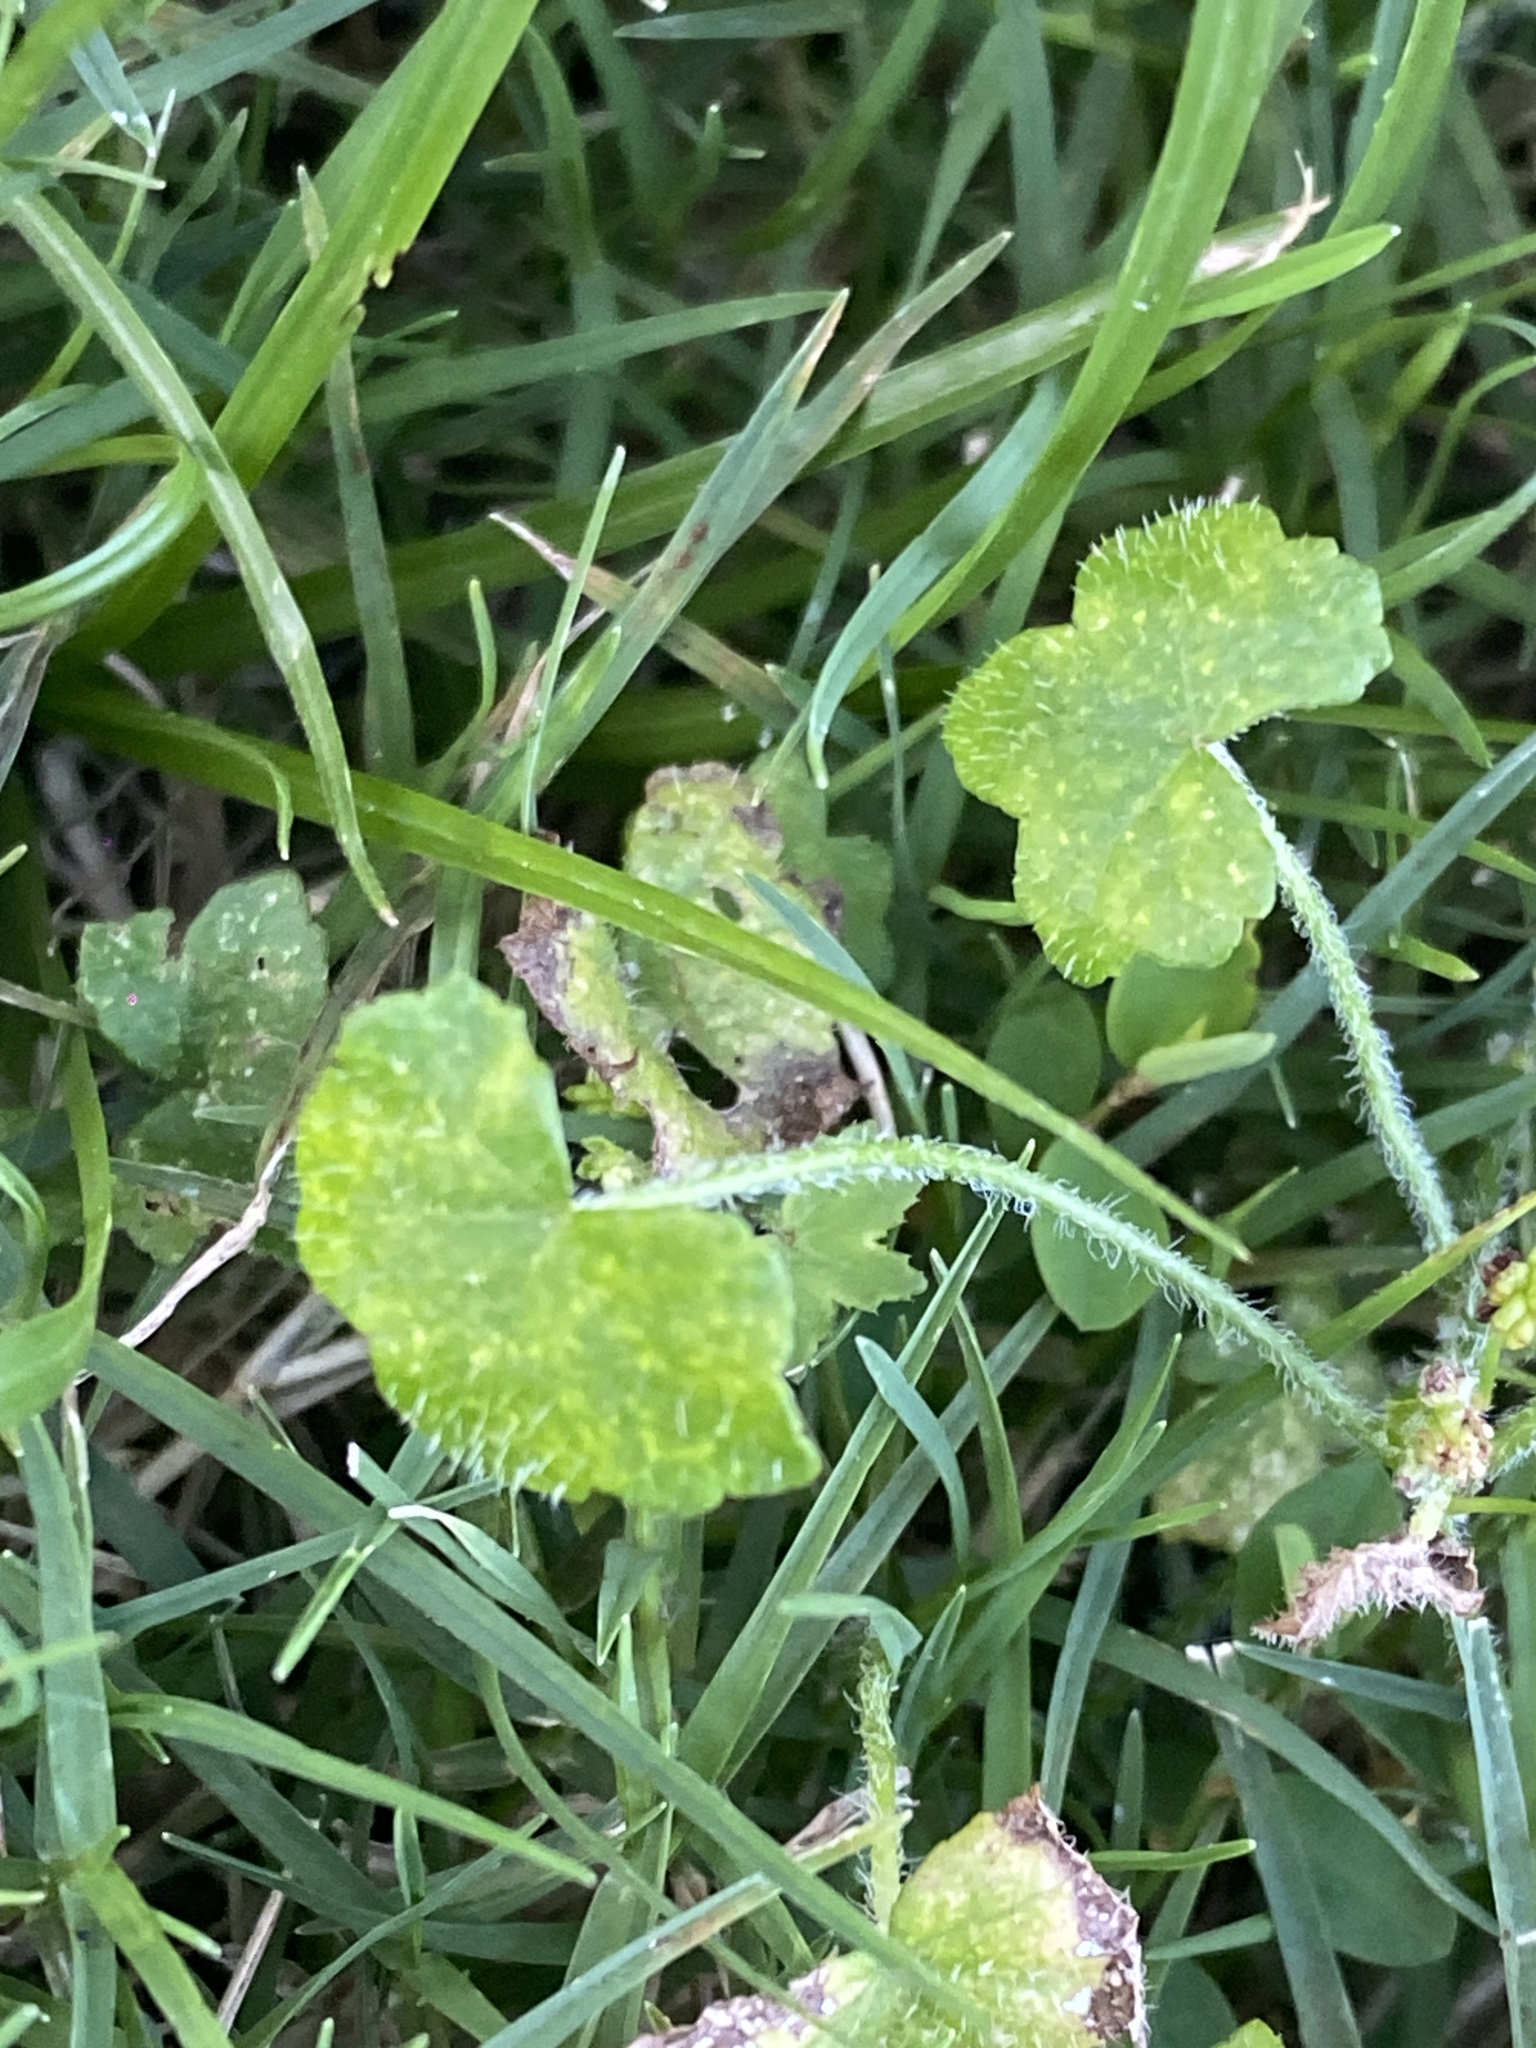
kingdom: Plantae
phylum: Tracheophyta
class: Magnoliopsida
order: Apiales
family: Araliaceae
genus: Hydrocotyle
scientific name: Hydrocotyle hirta
